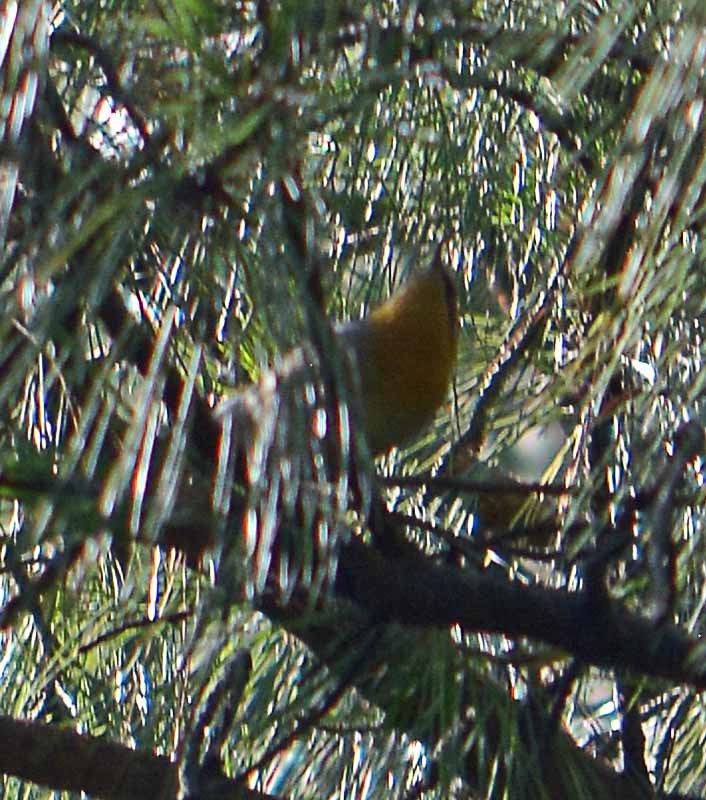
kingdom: Animalia
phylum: Chordata
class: Aves
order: Passeriformes
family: Peucedramidae
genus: Peucedramus
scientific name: Peucedramus taeniatus
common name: Olive warbler
